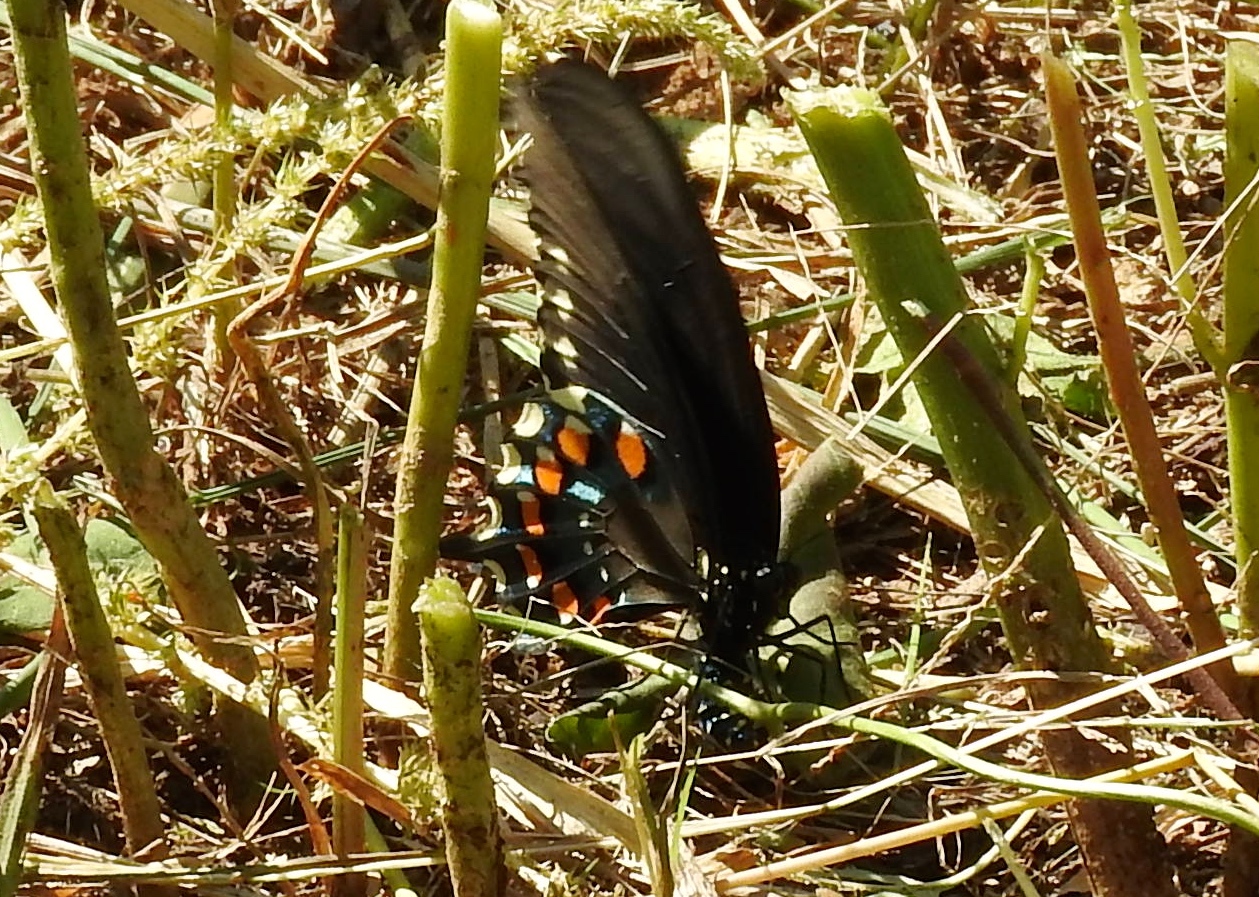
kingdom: Animalia
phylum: Arthropoda
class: Insecta
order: Lepidoptera
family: Papilionidae
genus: Battus
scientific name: Battus philenor
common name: Pipevine swallowtail
